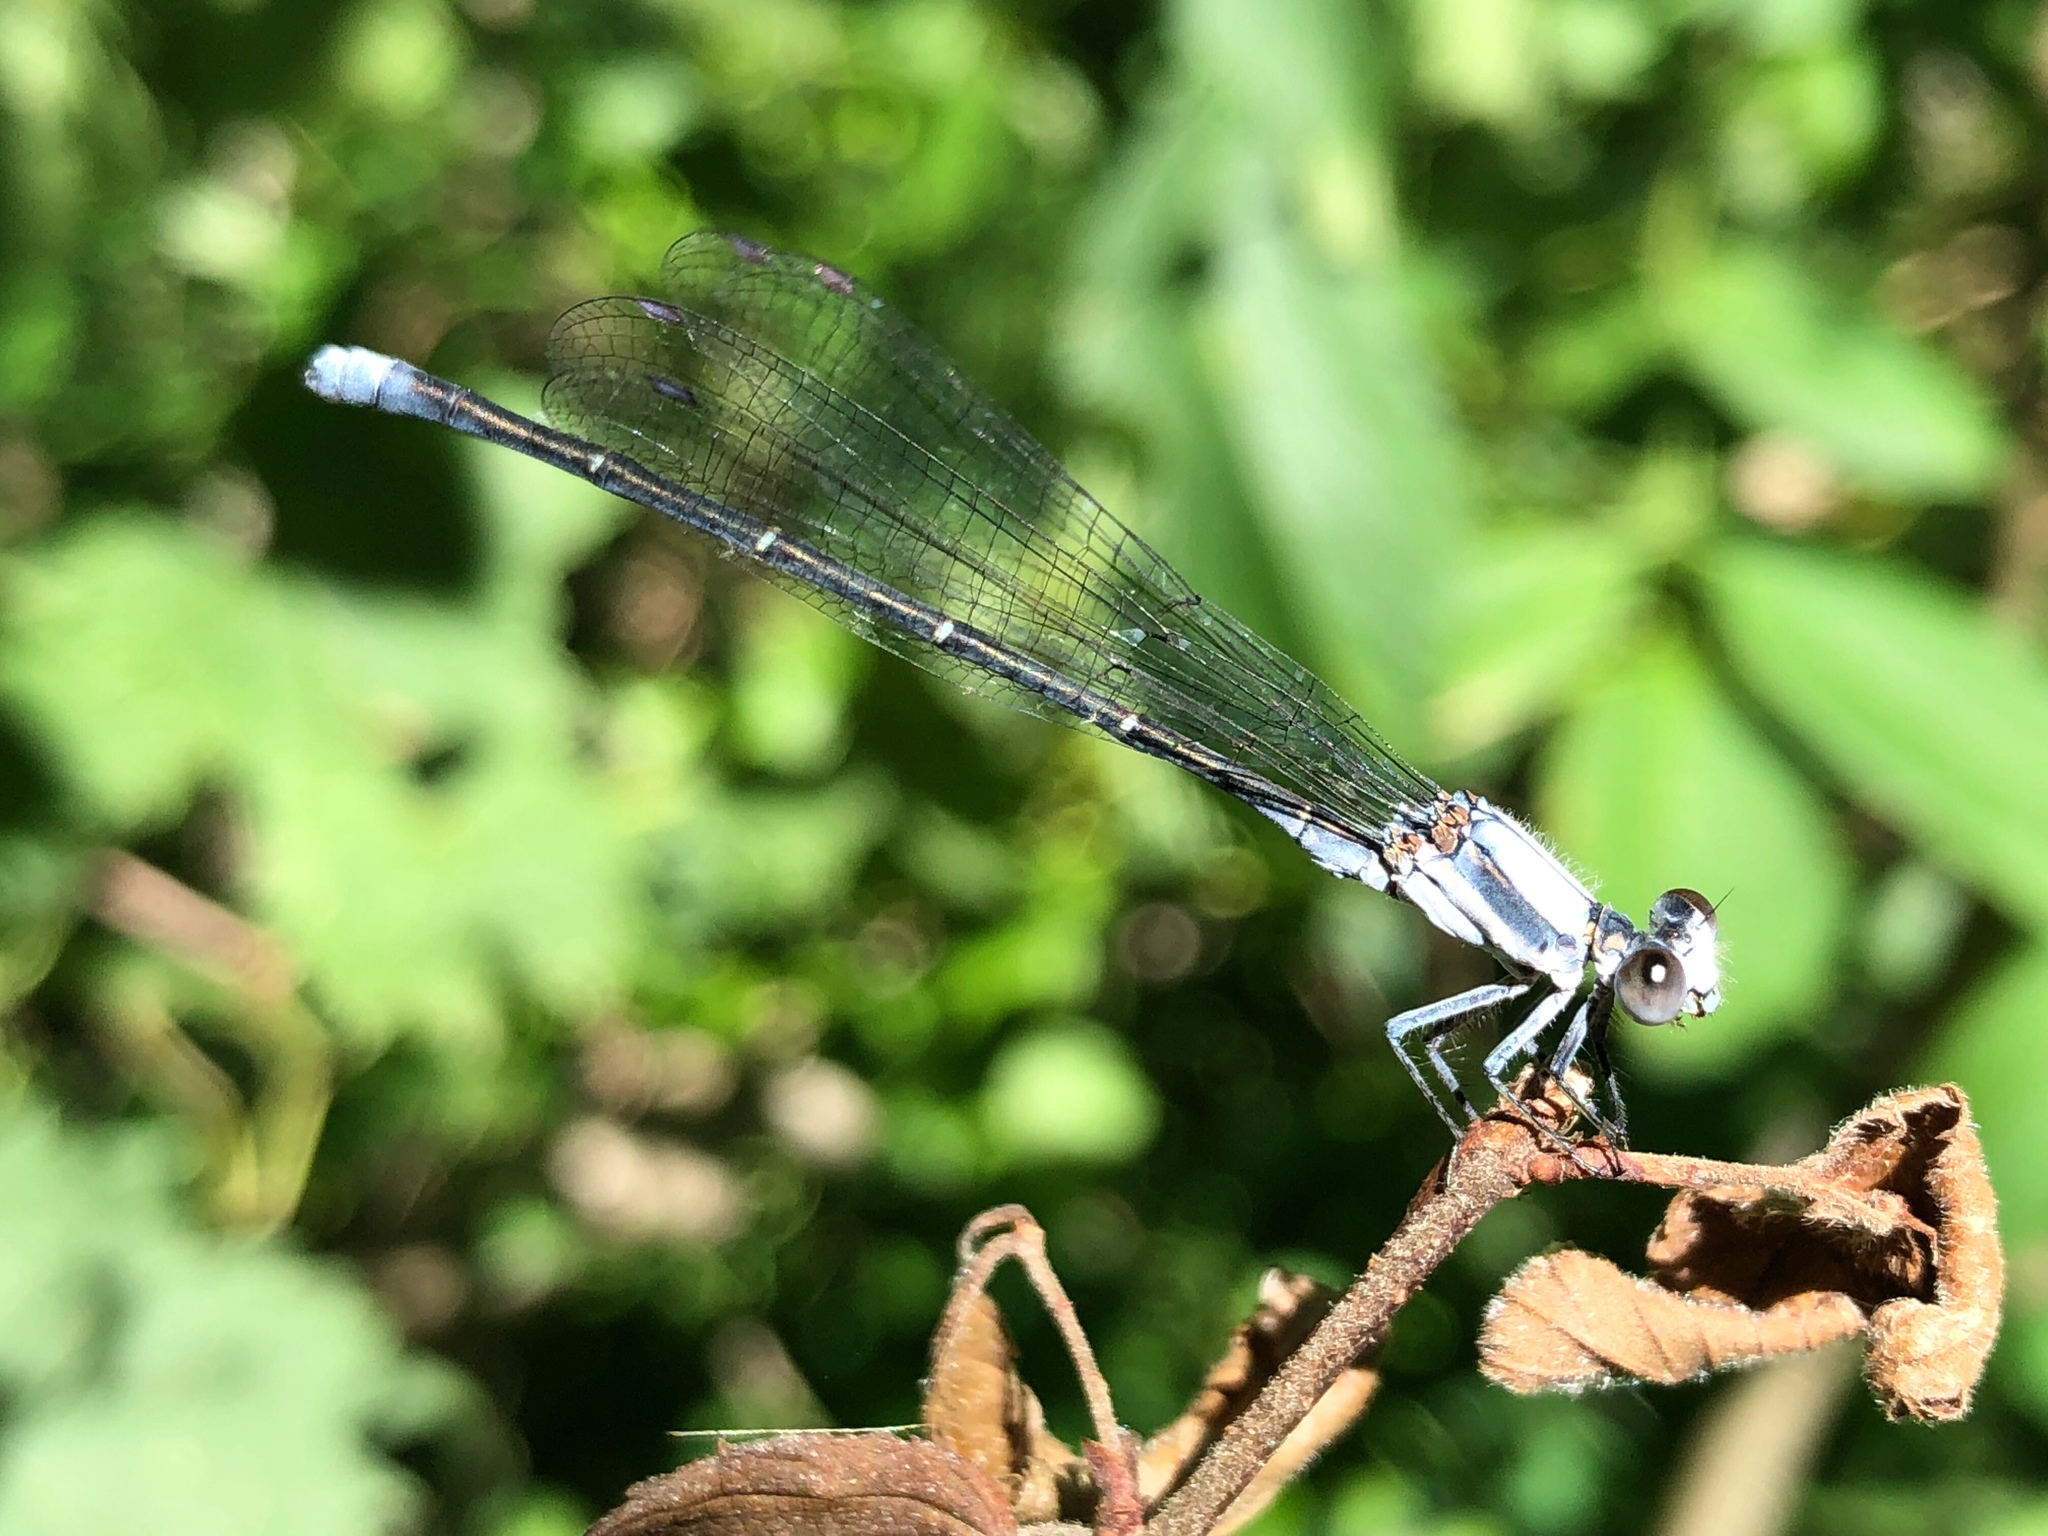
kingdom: Animalia
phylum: Arthropoda
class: Insecta
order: Odonata
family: Coenagrionidae
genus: Argia
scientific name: Argia moesta
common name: Powdered dancer
